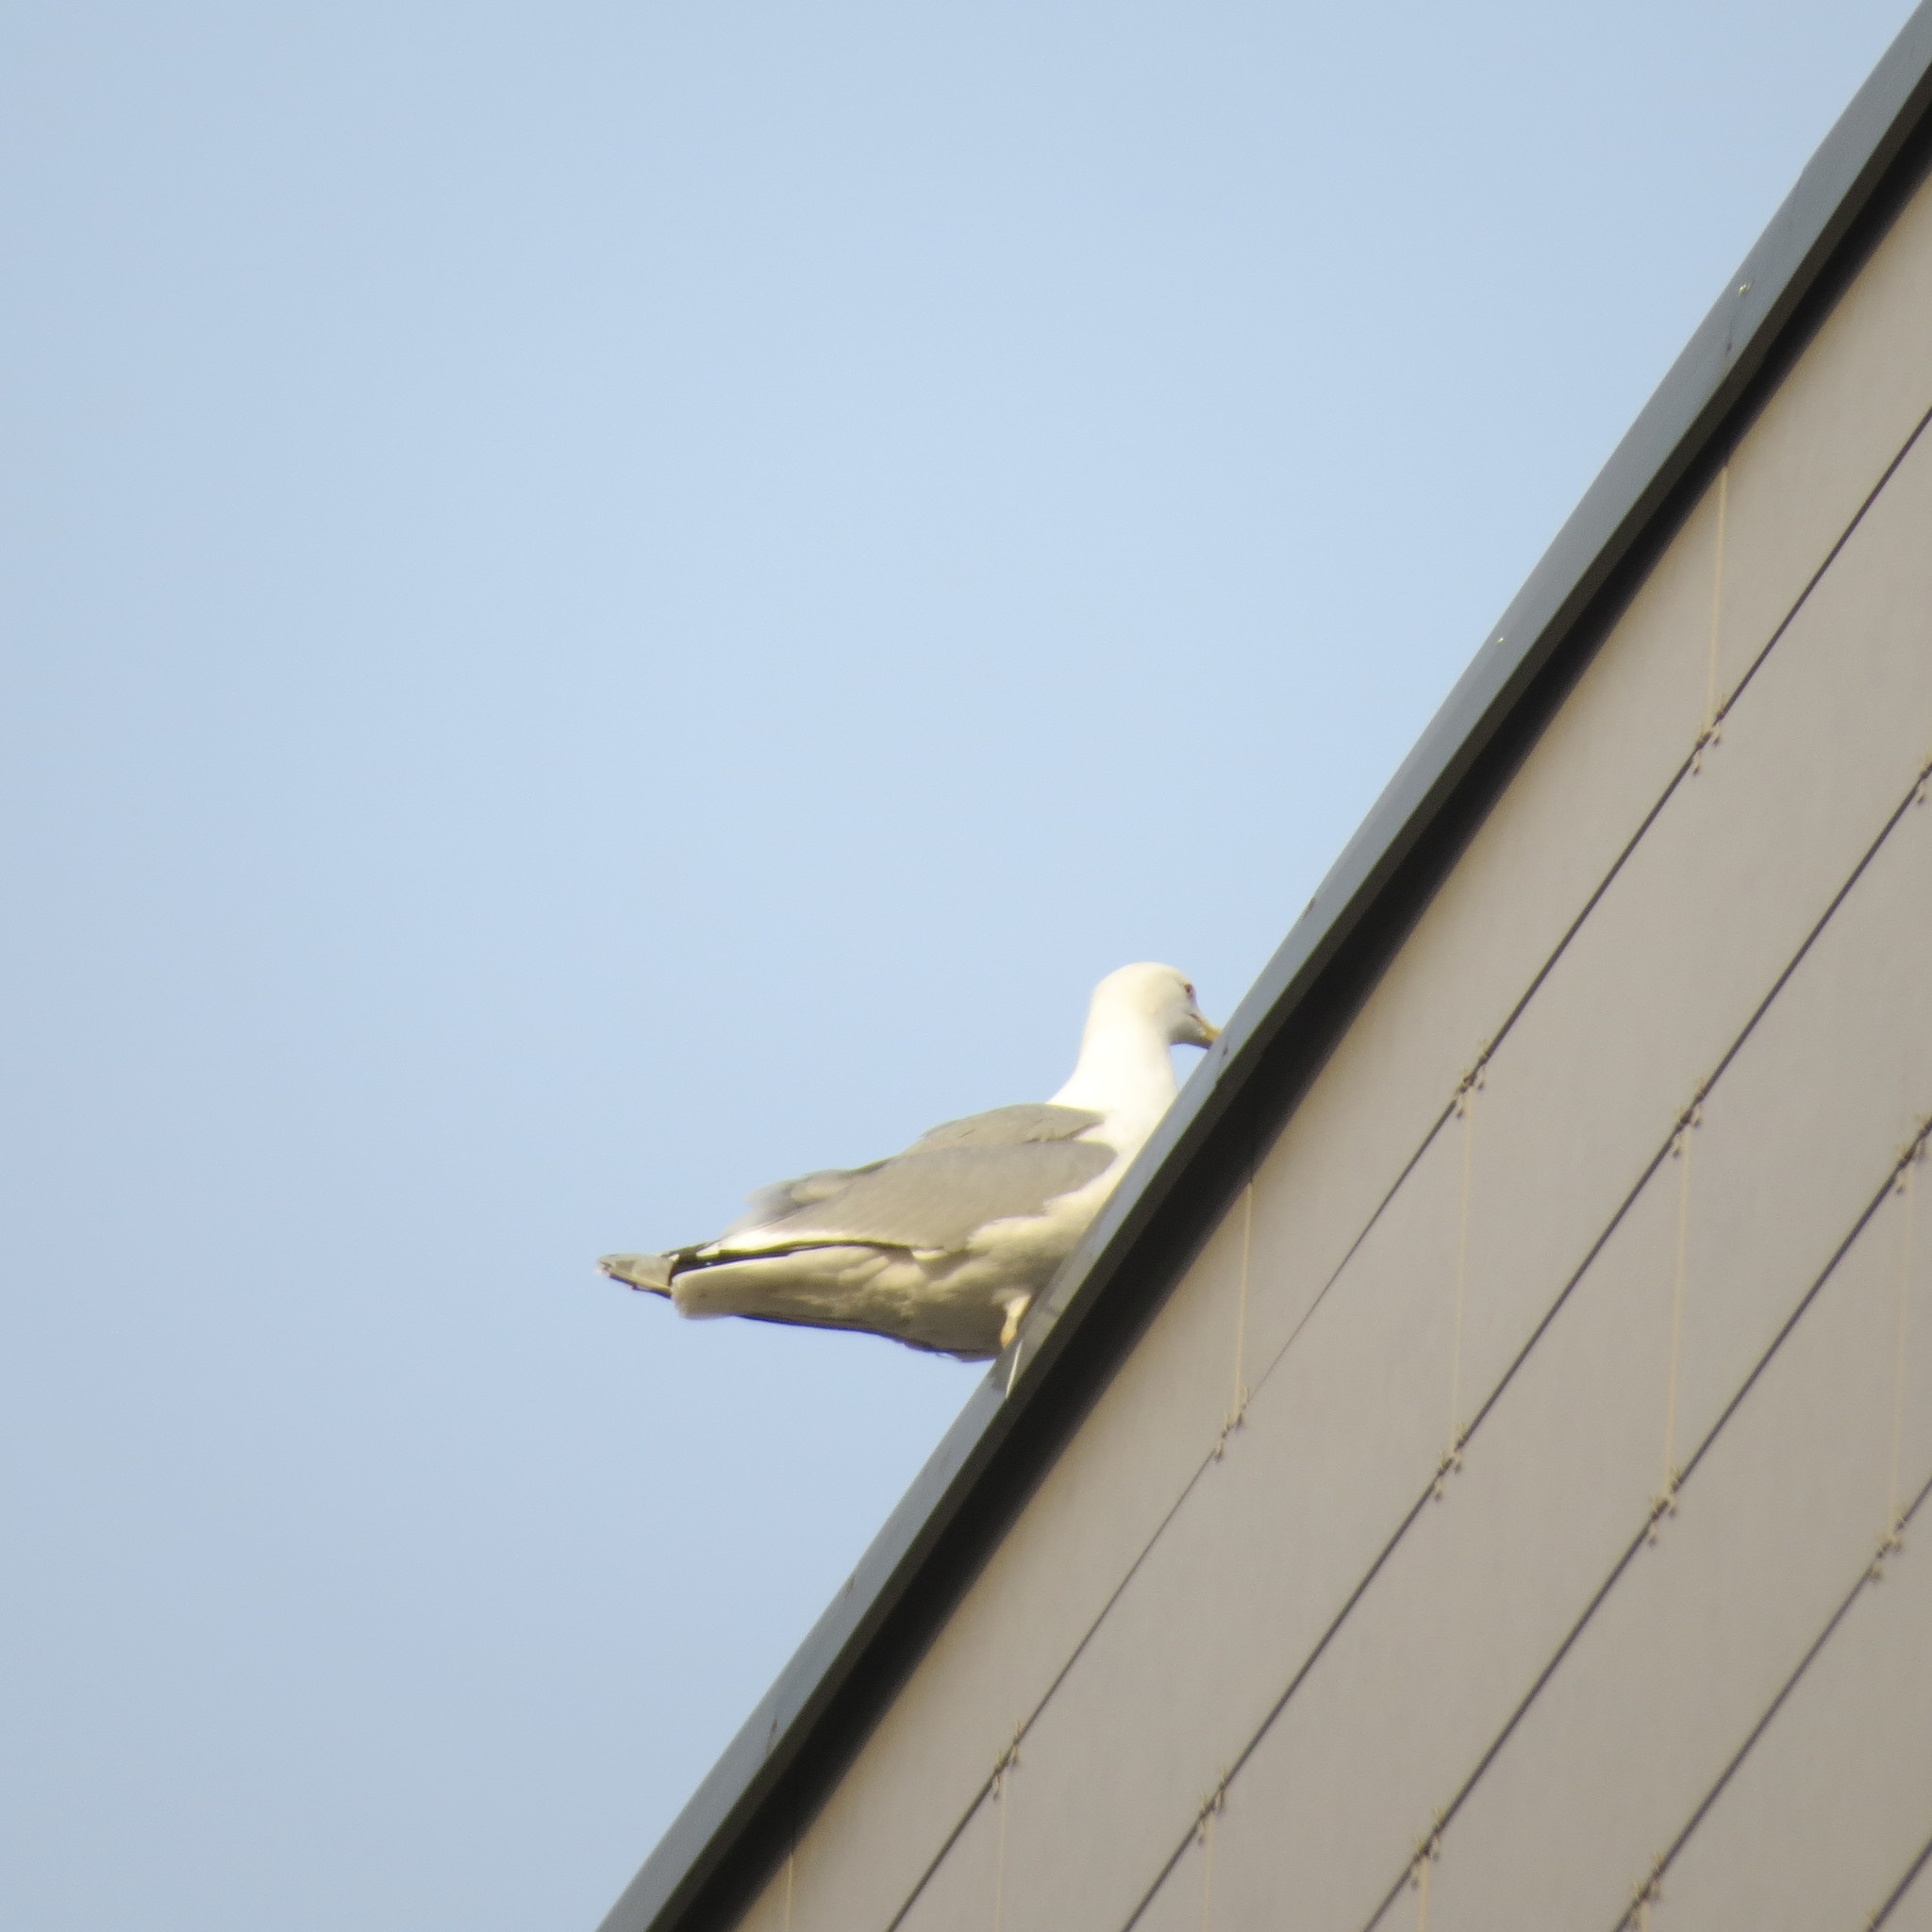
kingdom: Animalia
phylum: Chordata
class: Aves
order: Charadriiformes
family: Laridae
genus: Larus
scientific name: Larus argentatus
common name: Herring gull
